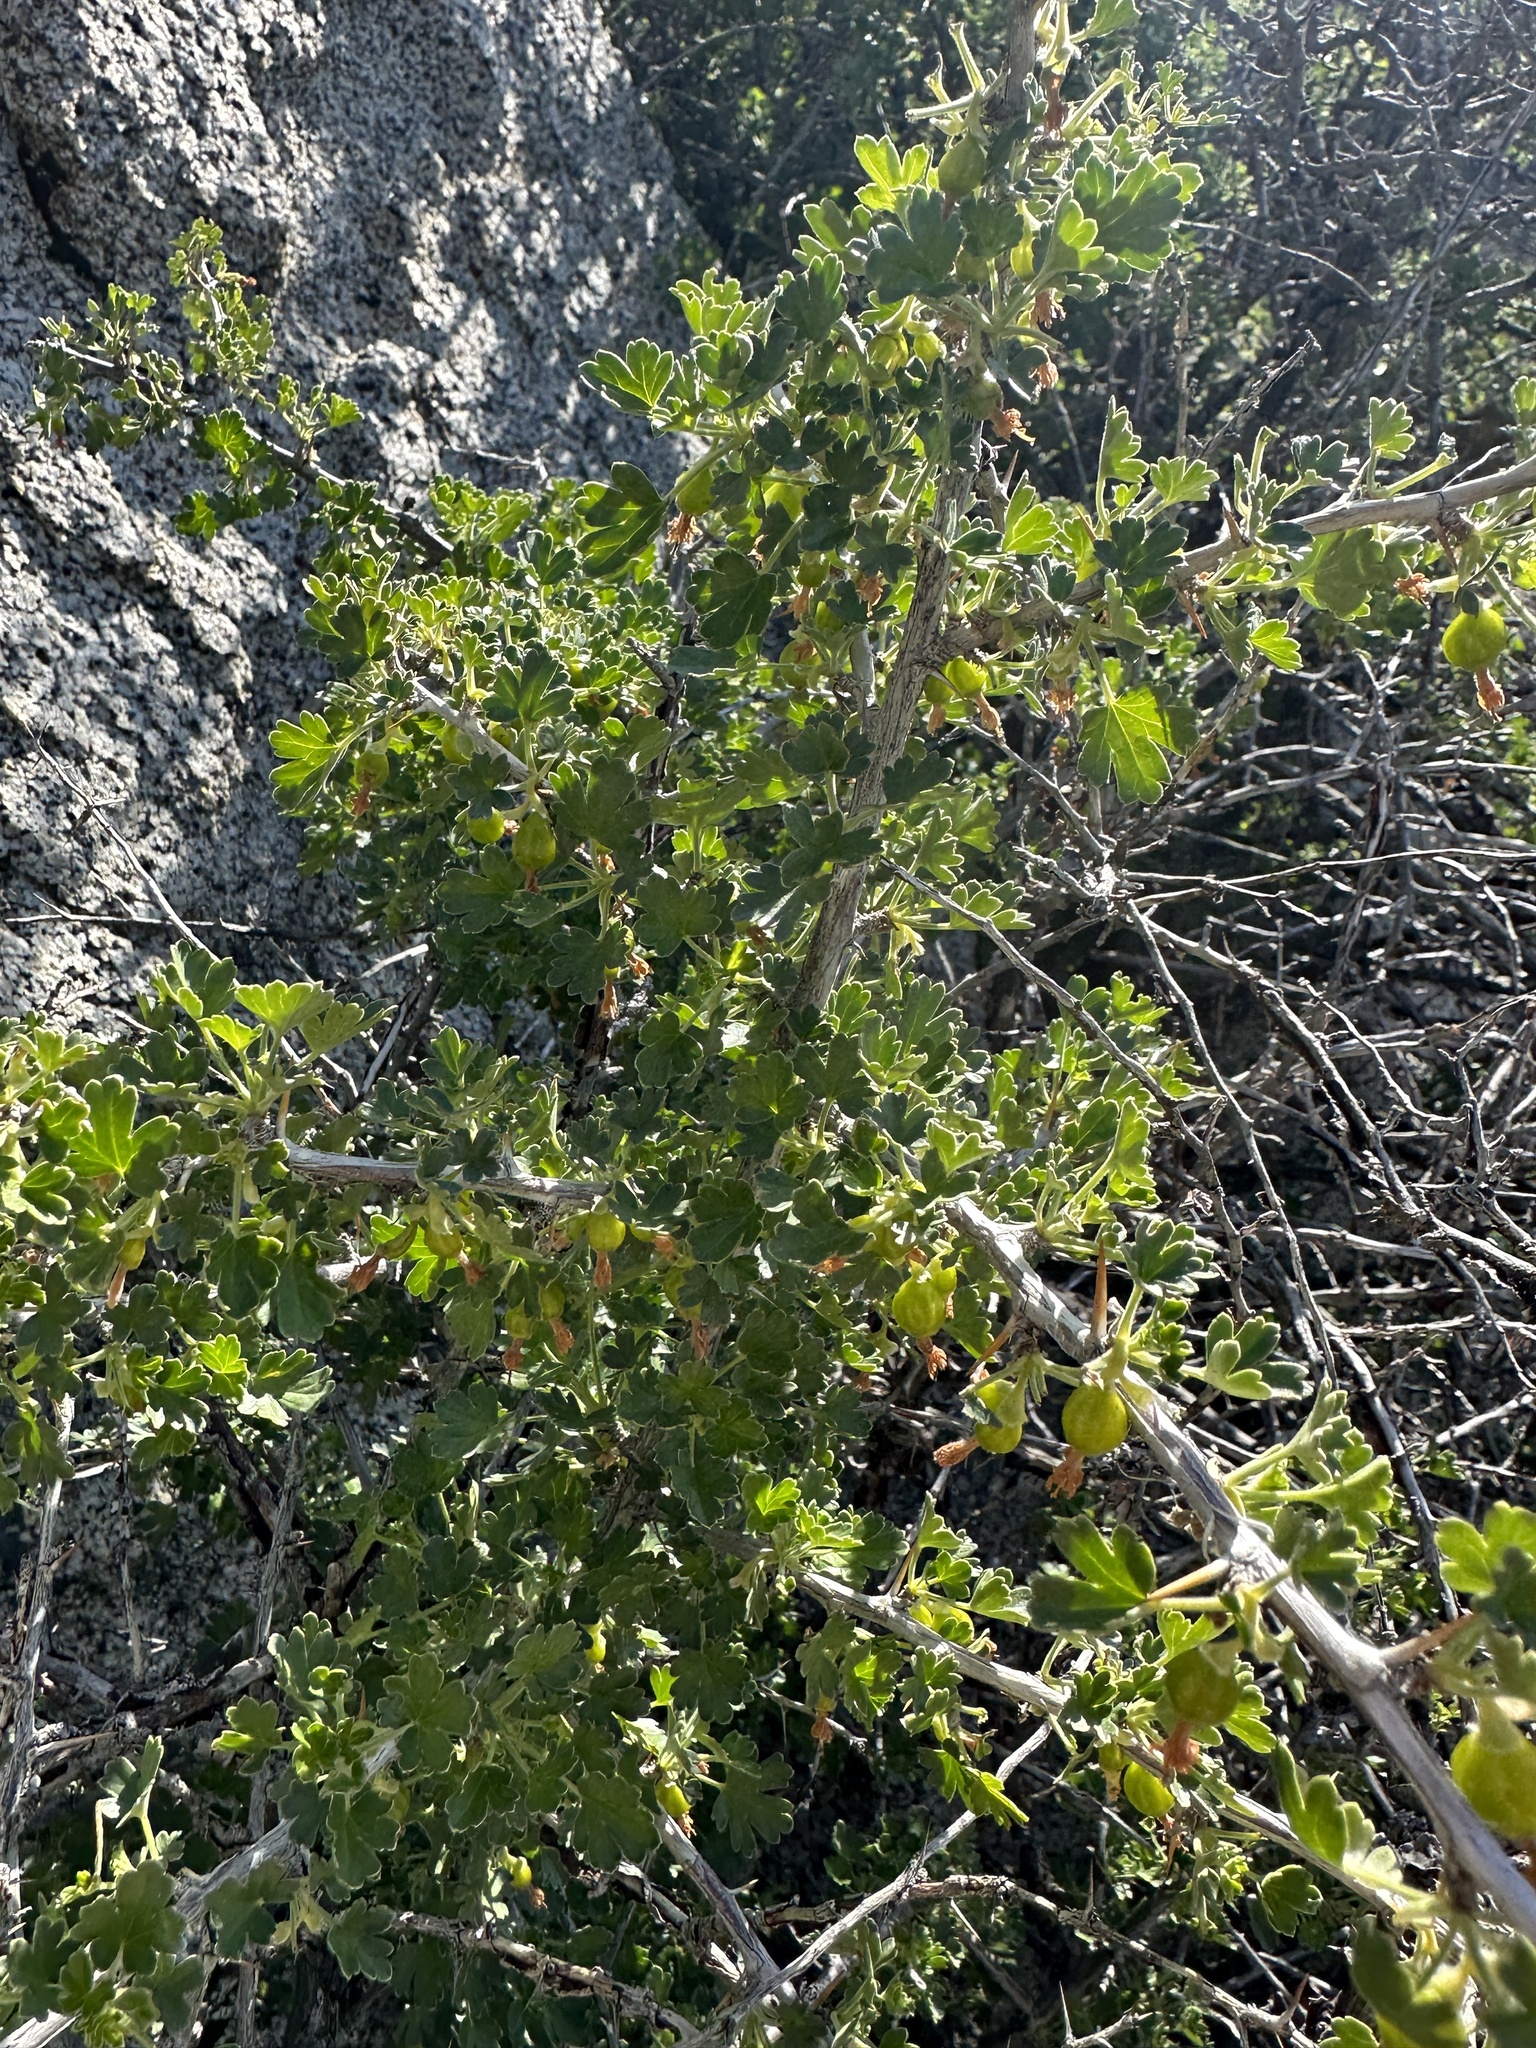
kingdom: Plantae
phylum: Tracheophyta
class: Magnoliopsida
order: Saxifragales
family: Grossulariaceae
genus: Ribes
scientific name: Ribes quercetorum
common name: Oak gooseberry
